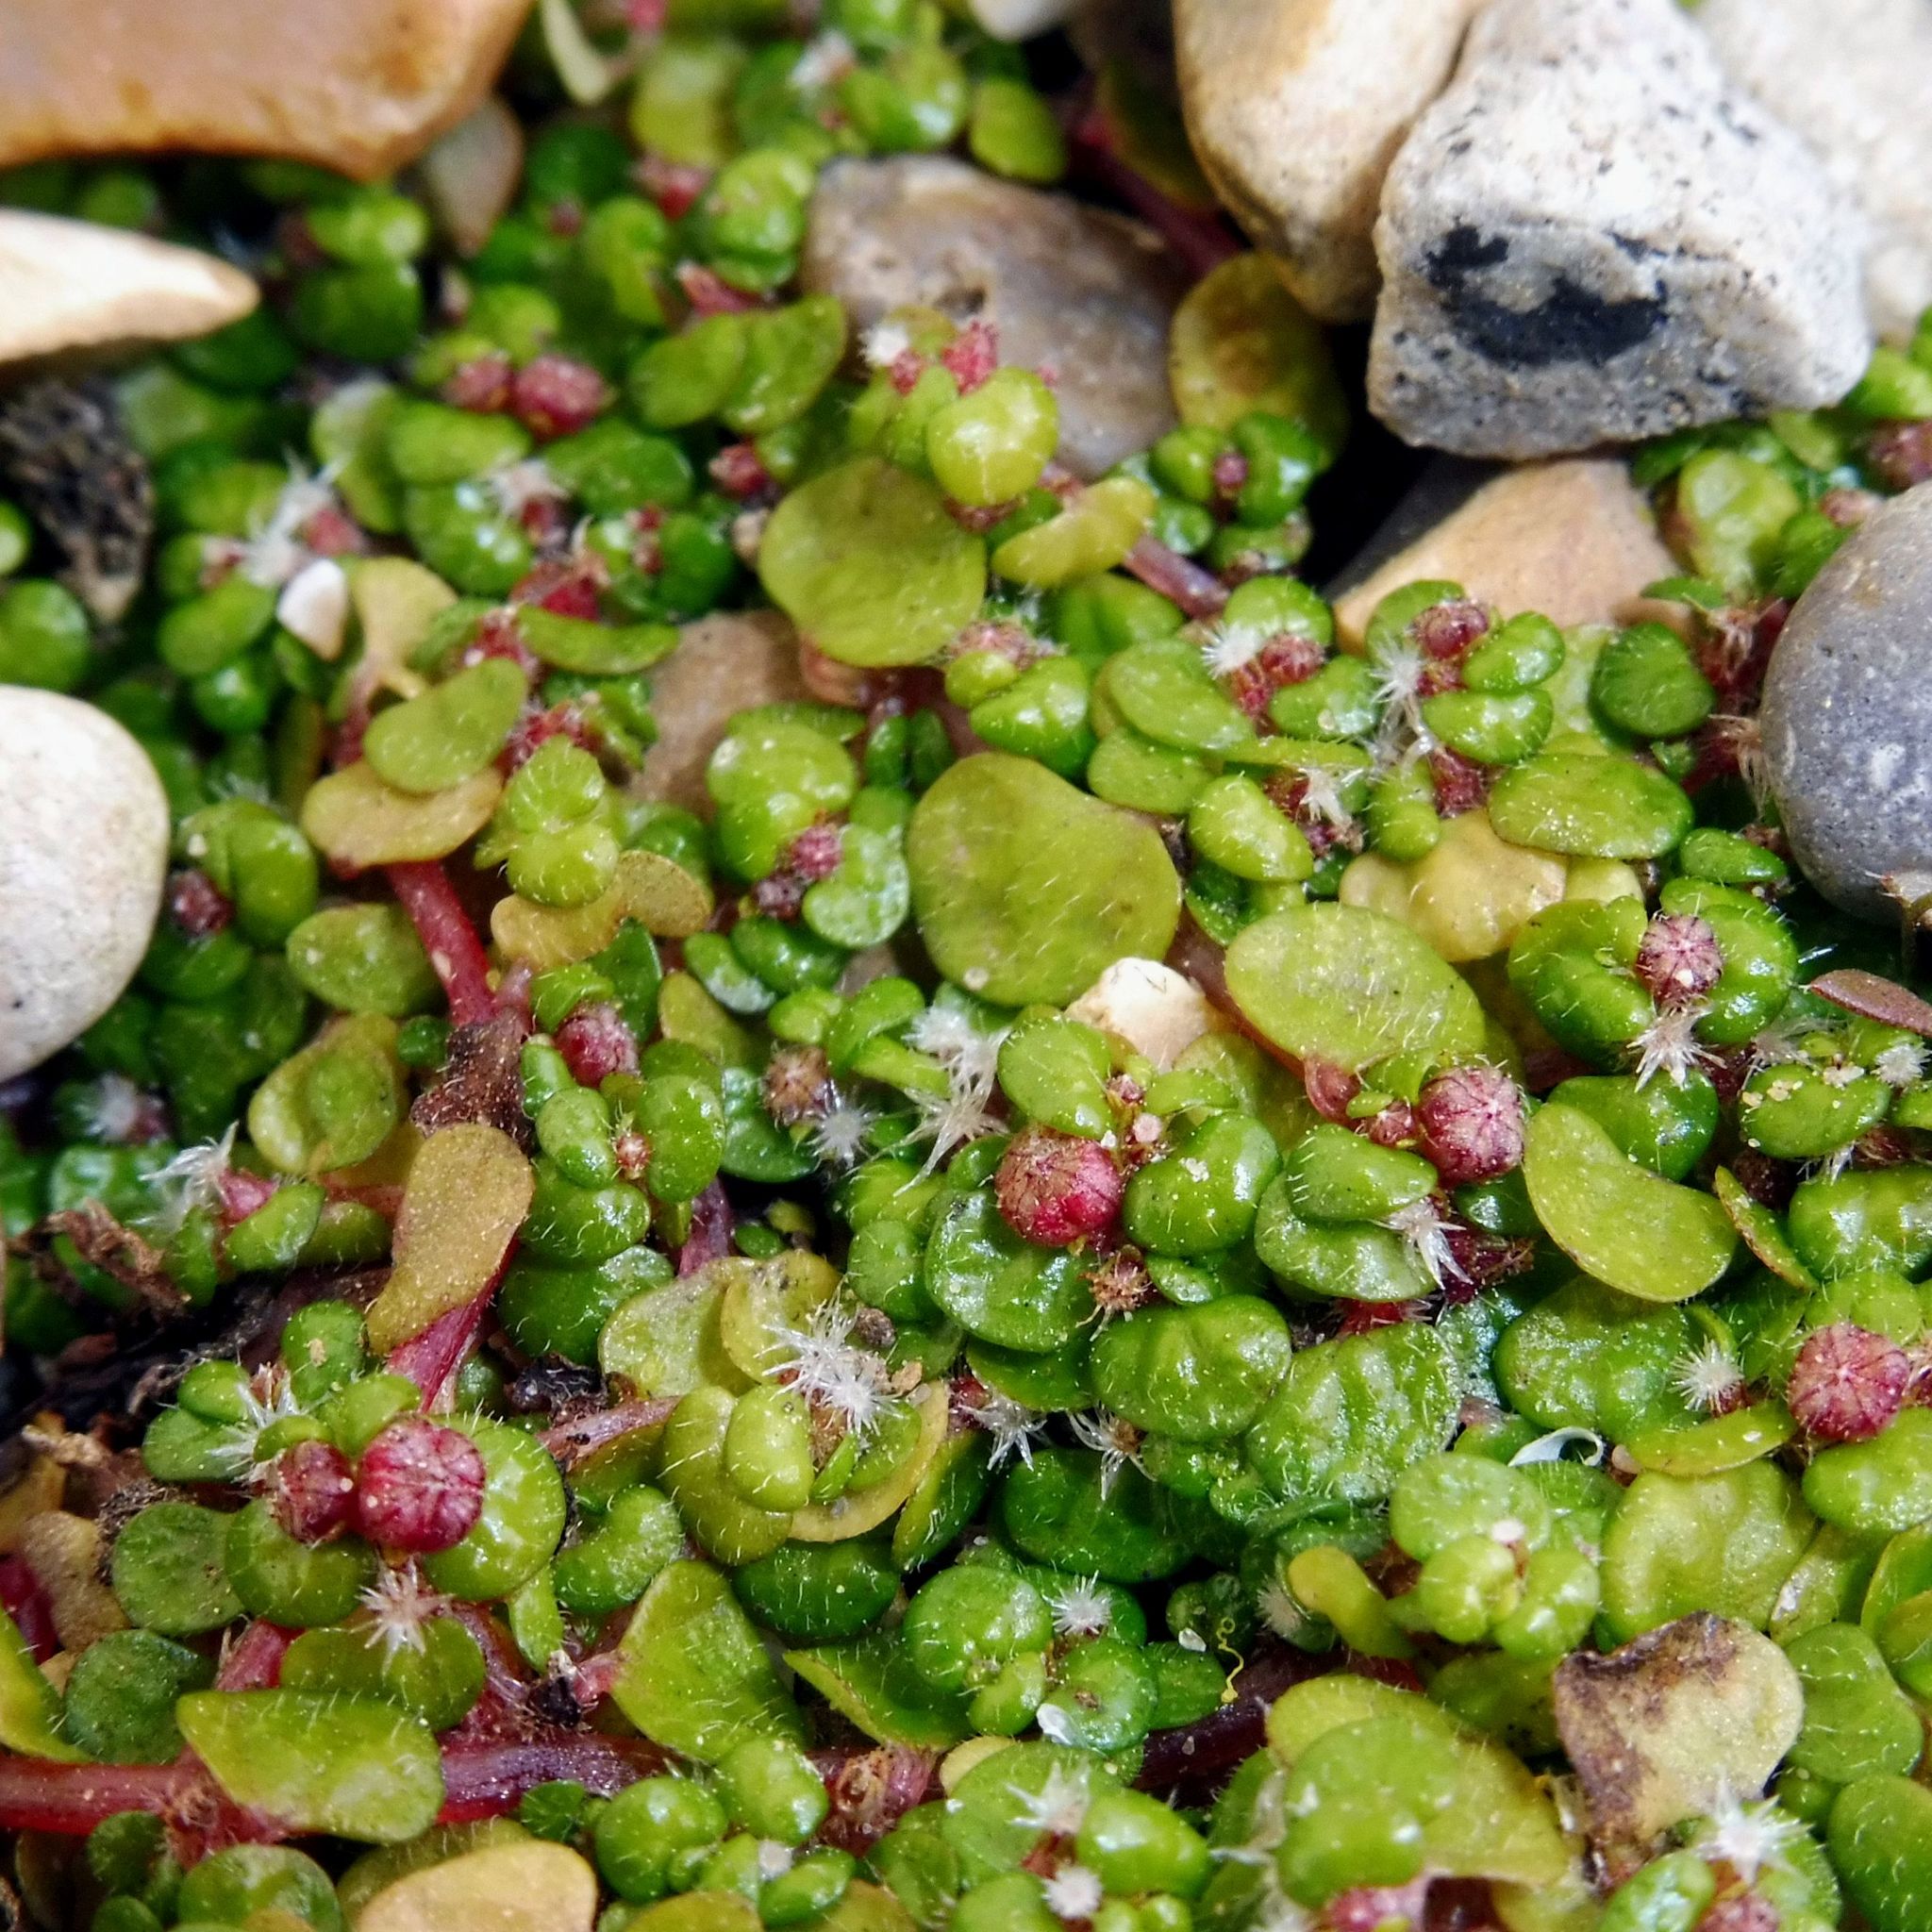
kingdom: Plantae
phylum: Tracheophyta
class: Magnoliopsida
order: Rosales
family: Urticaceae
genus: Soleirolia
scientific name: Soleirolia soleirolii
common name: Mind-your-own-business
